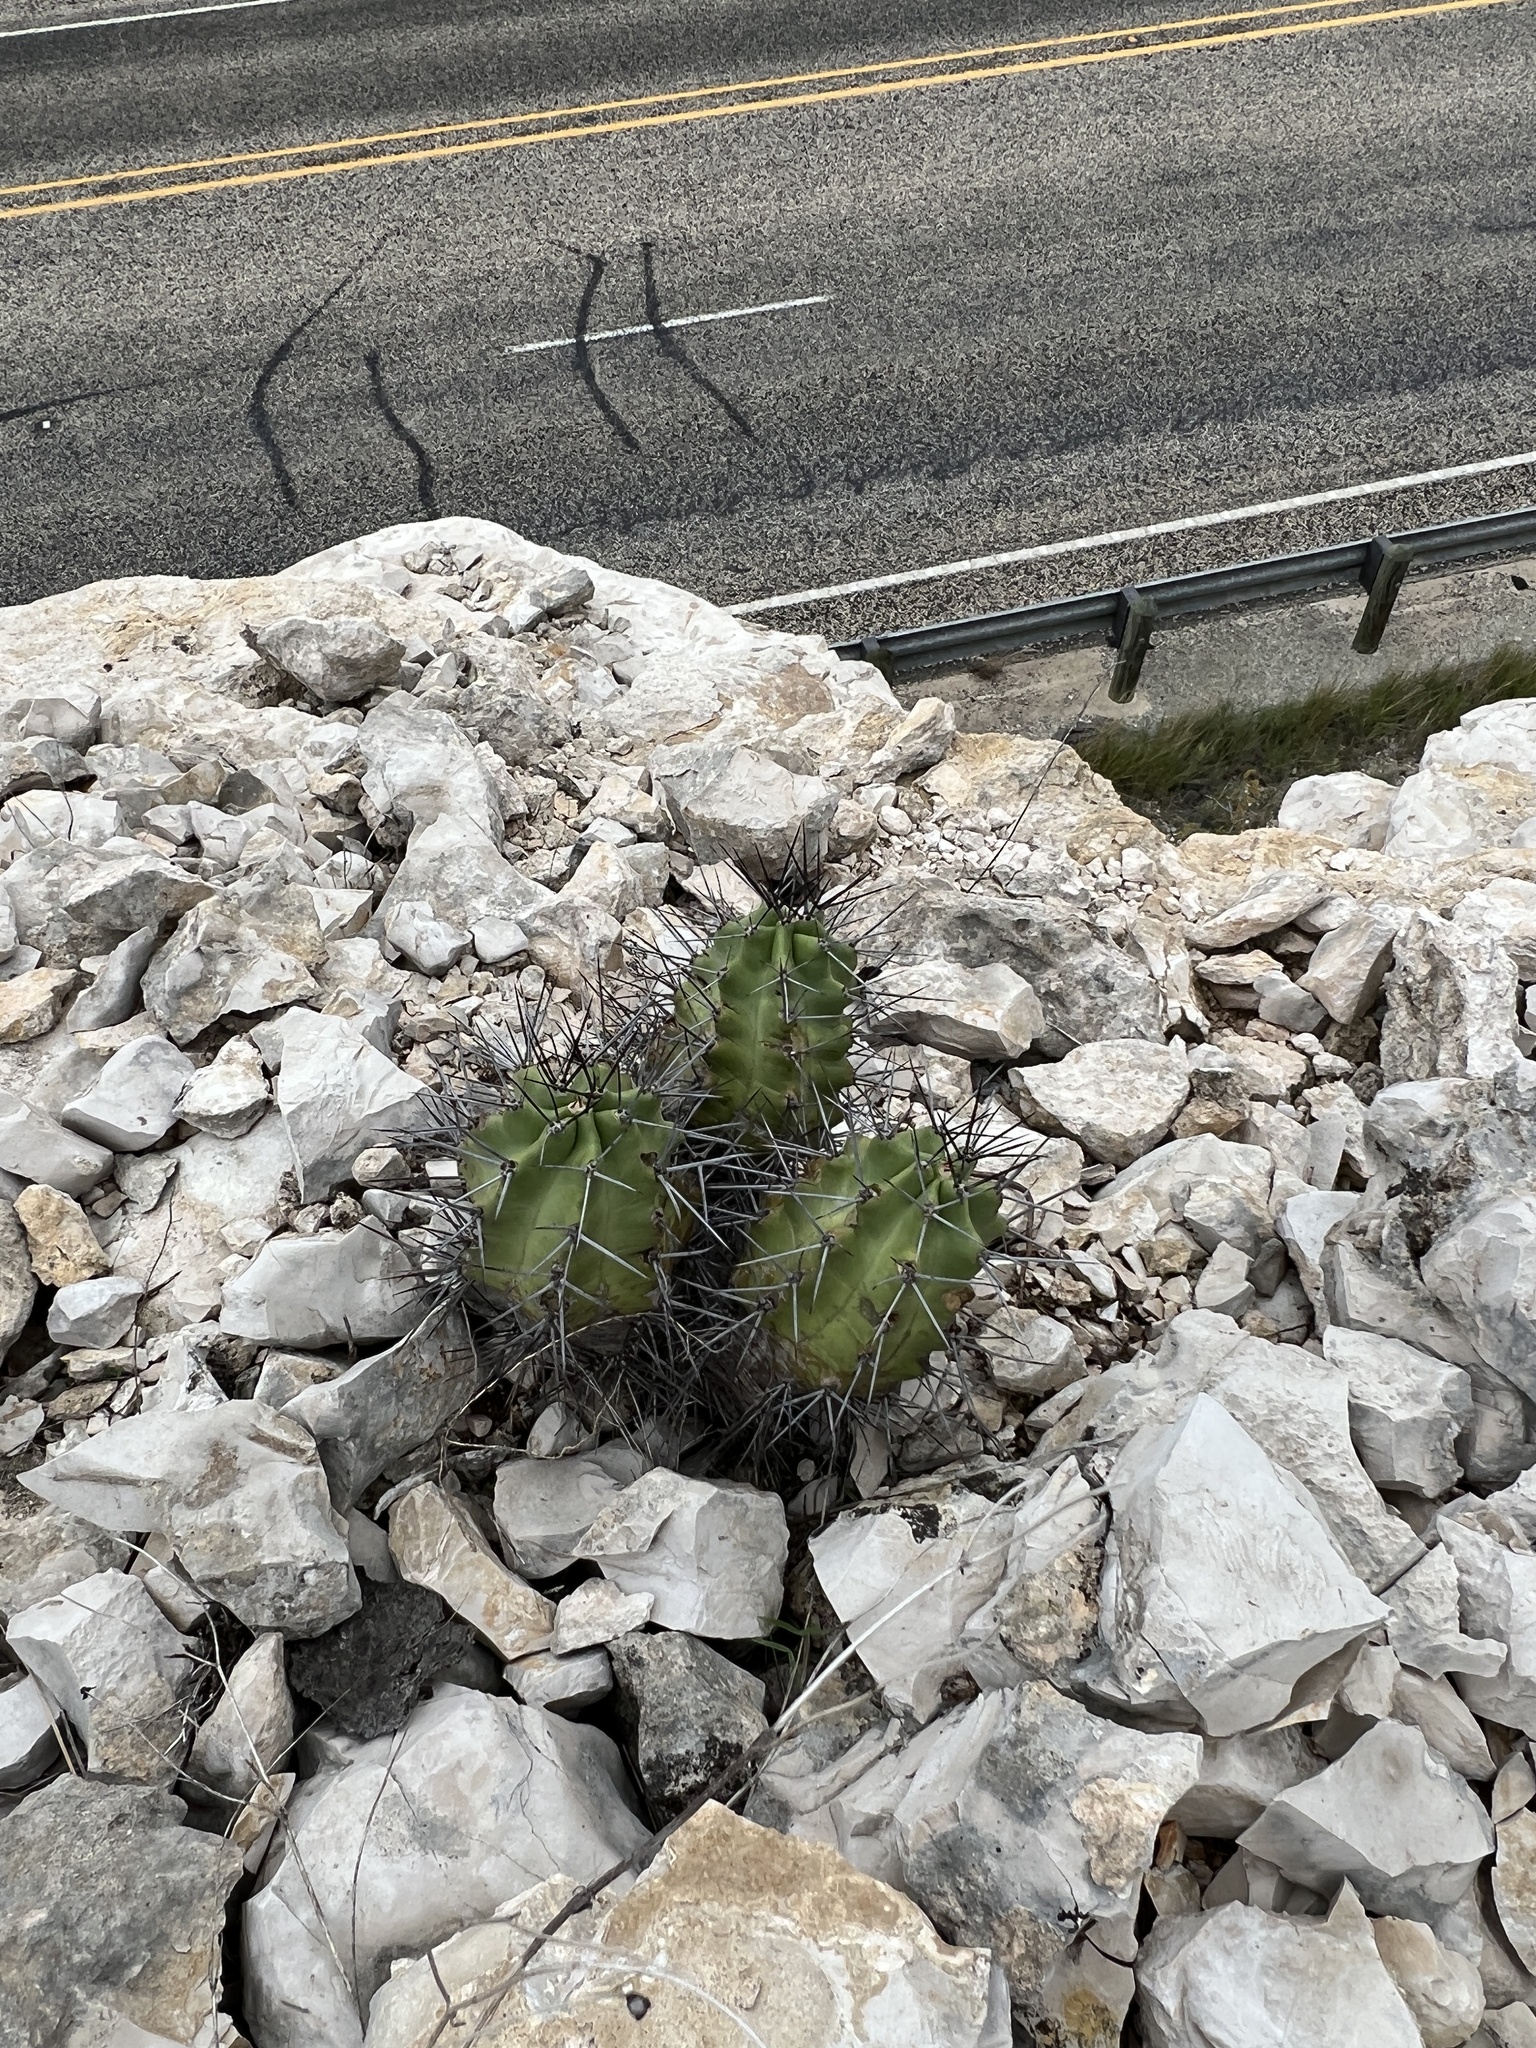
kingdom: Plantae
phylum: Tracheophyta
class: Magnoliopsida
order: Caryophyllales
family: Cactaceae
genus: Echinocereus
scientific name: Echinocereus coccineus
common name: Scarlet hedgehog cactus
